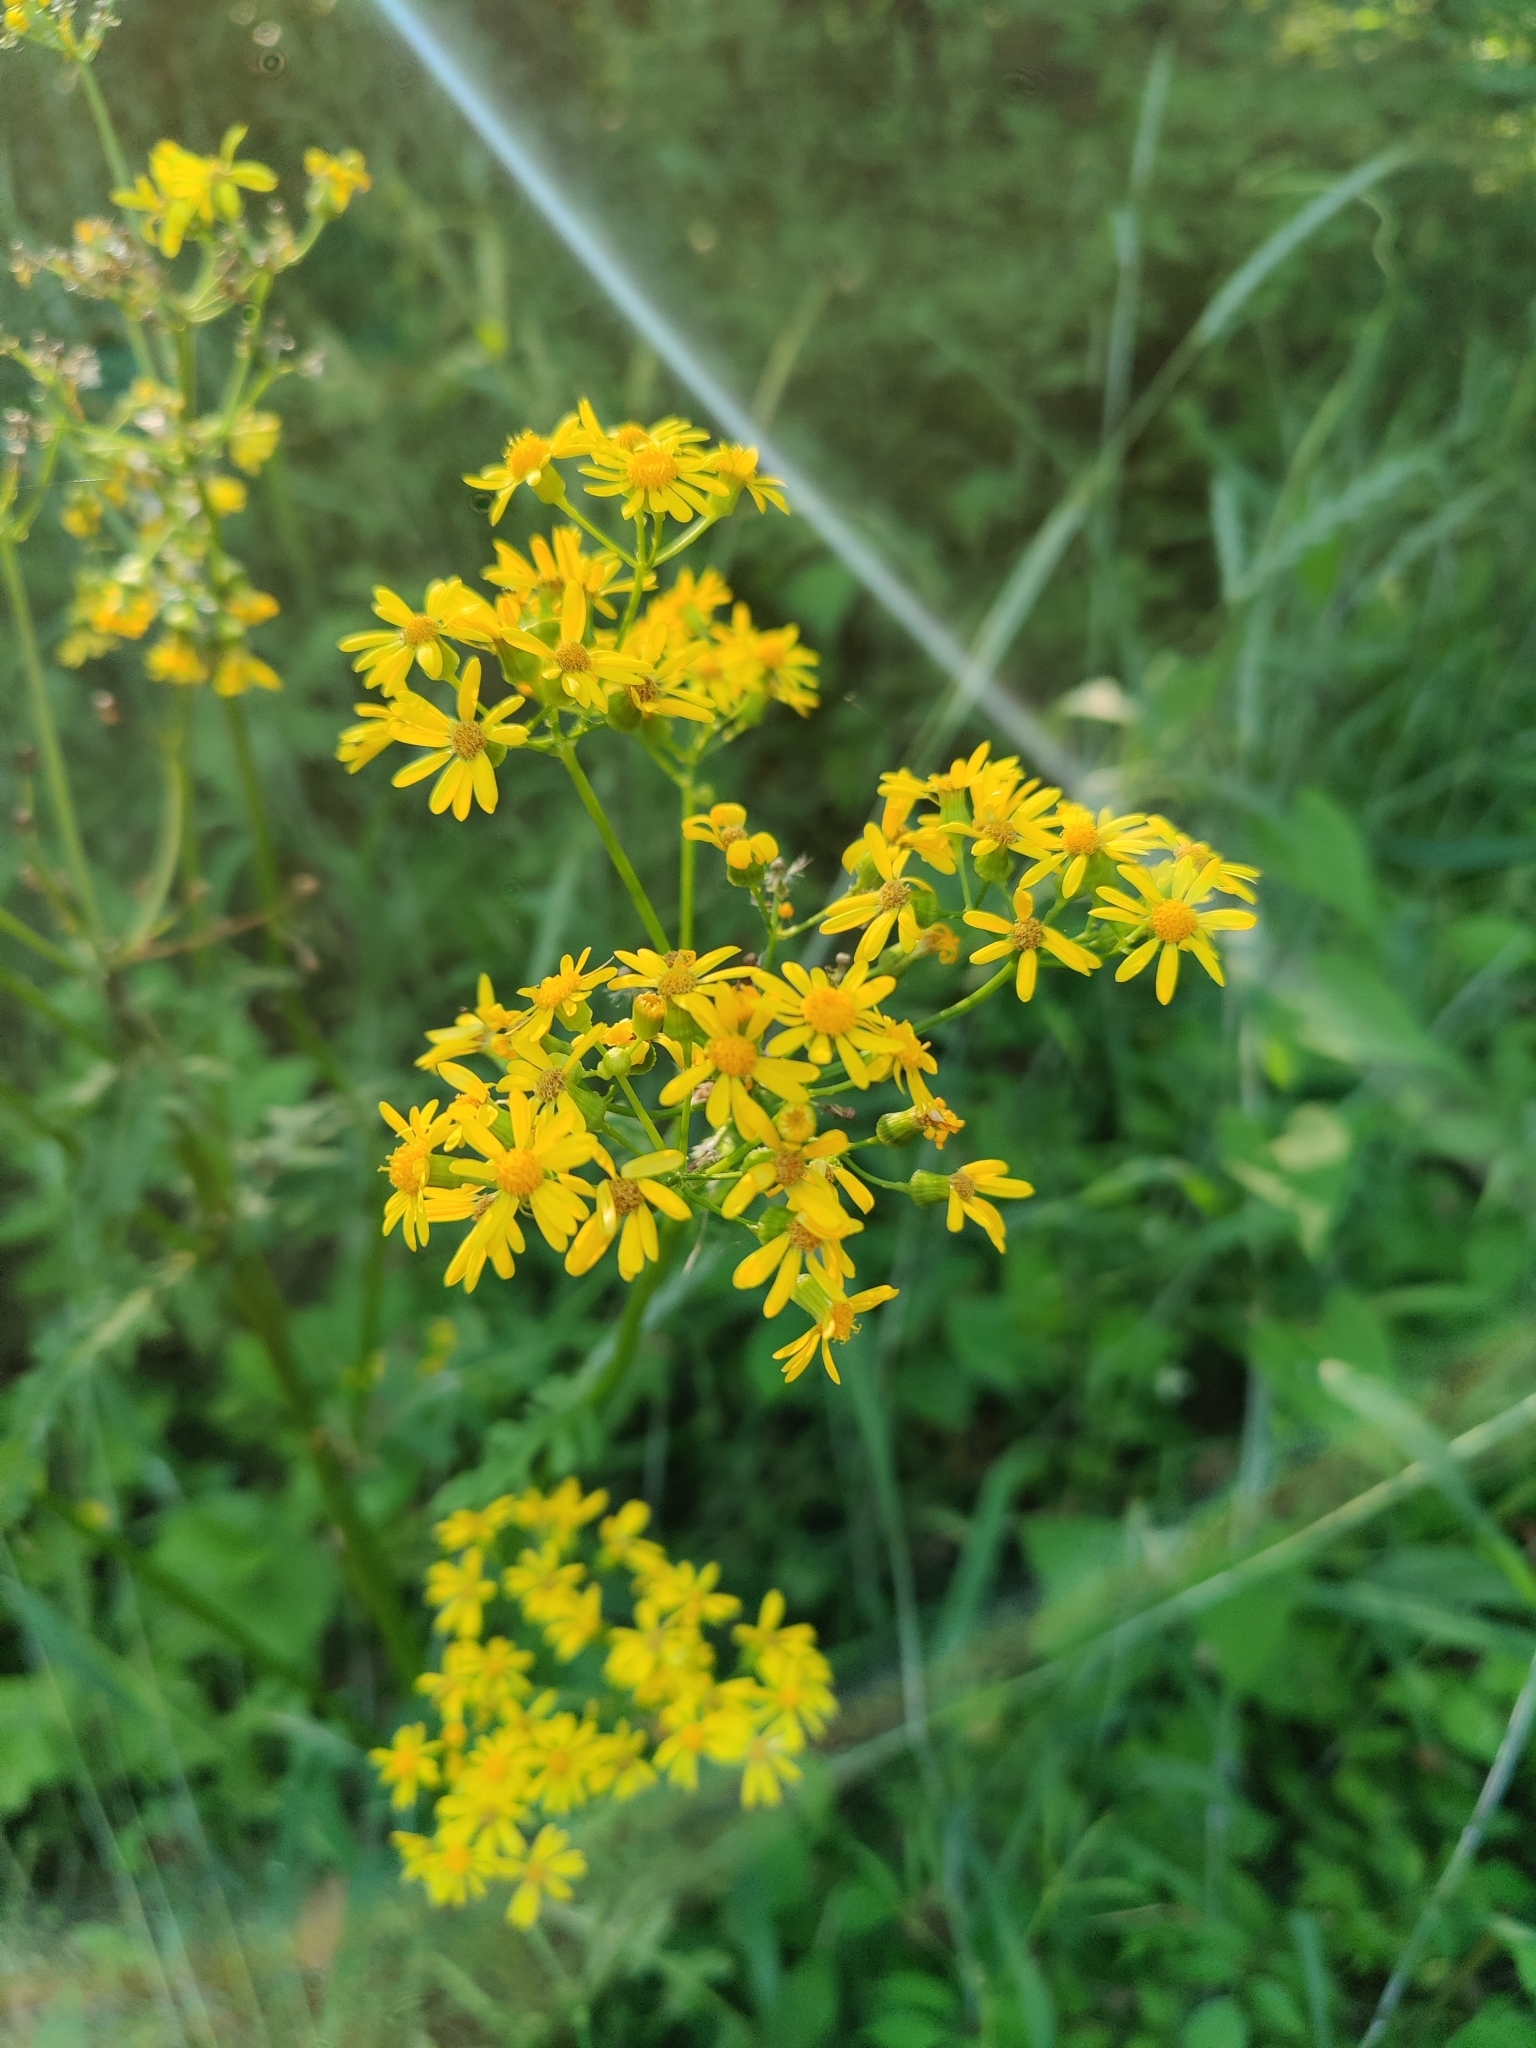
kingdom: Plantae
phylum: Tracheophyta
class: Magnoliopsida
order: Asterales
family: Asteraceae
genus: Packera
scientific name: Packera glabella
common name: Butterweed
